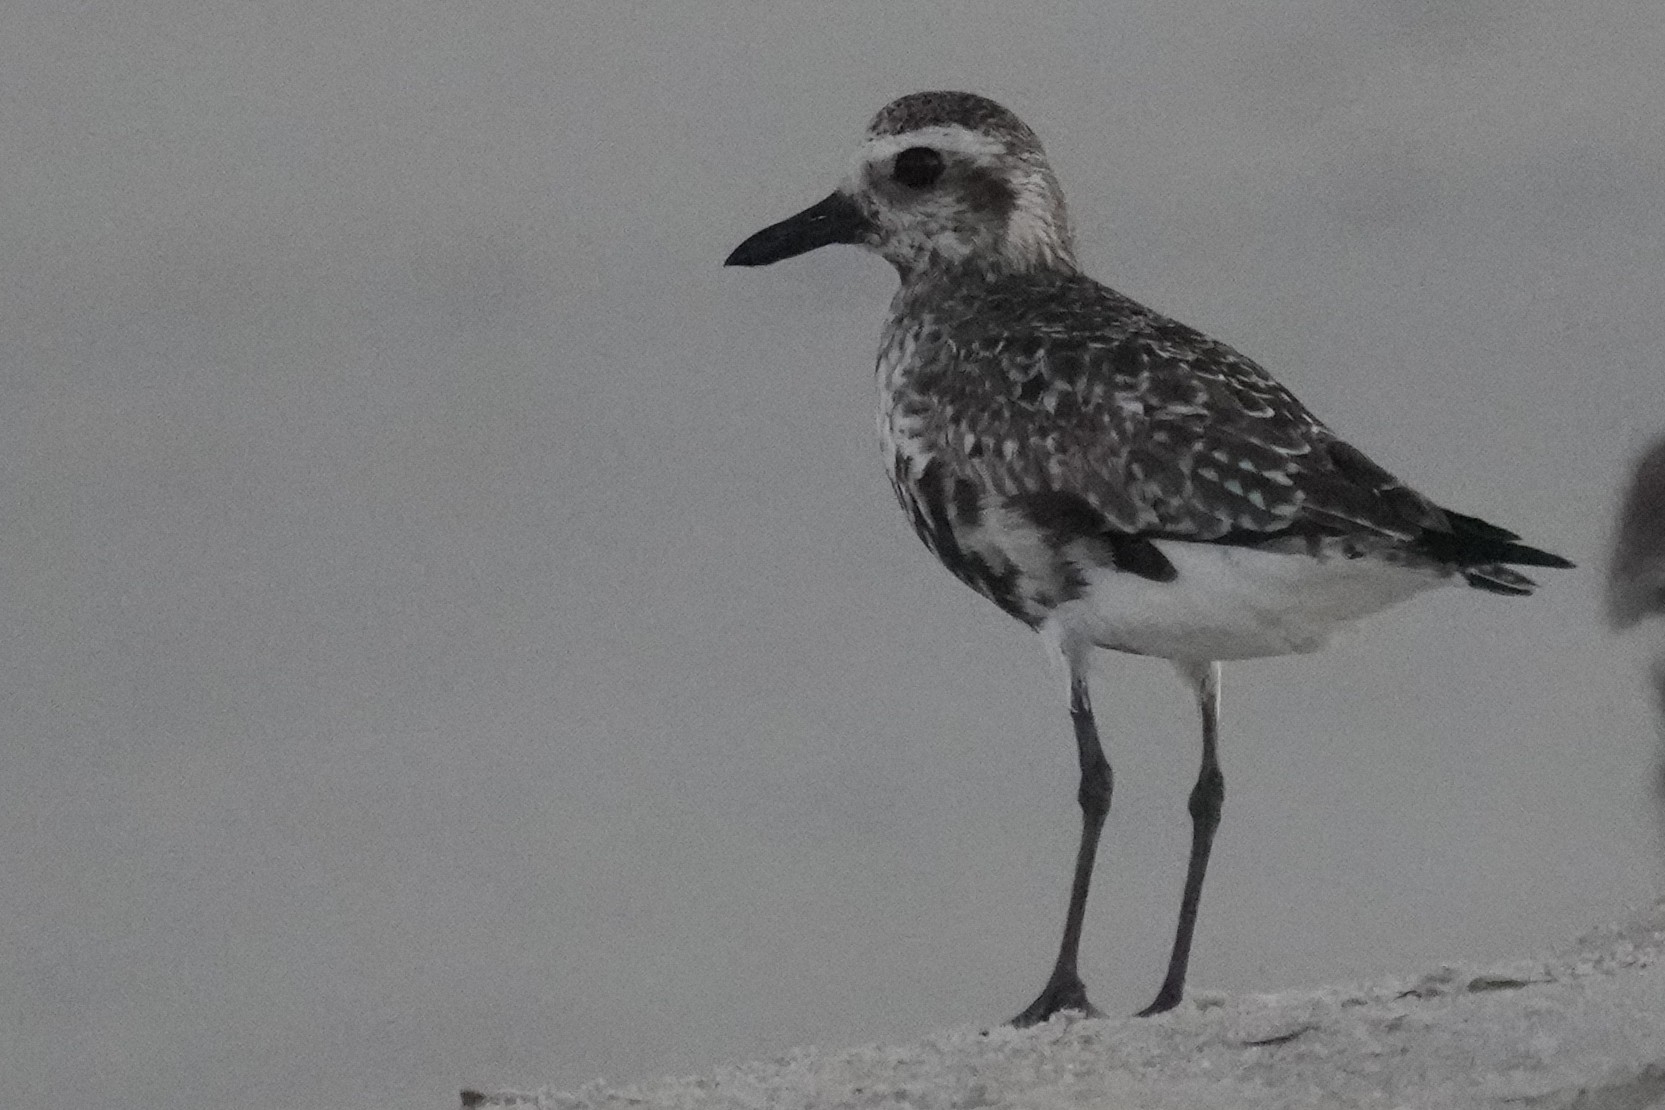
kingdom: Animalia
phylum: Chordata
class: Aves
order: Charadriiformes
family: Charadriidae
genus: Pluvialis
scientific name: Pluvialis squatarola
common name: Grey plover
